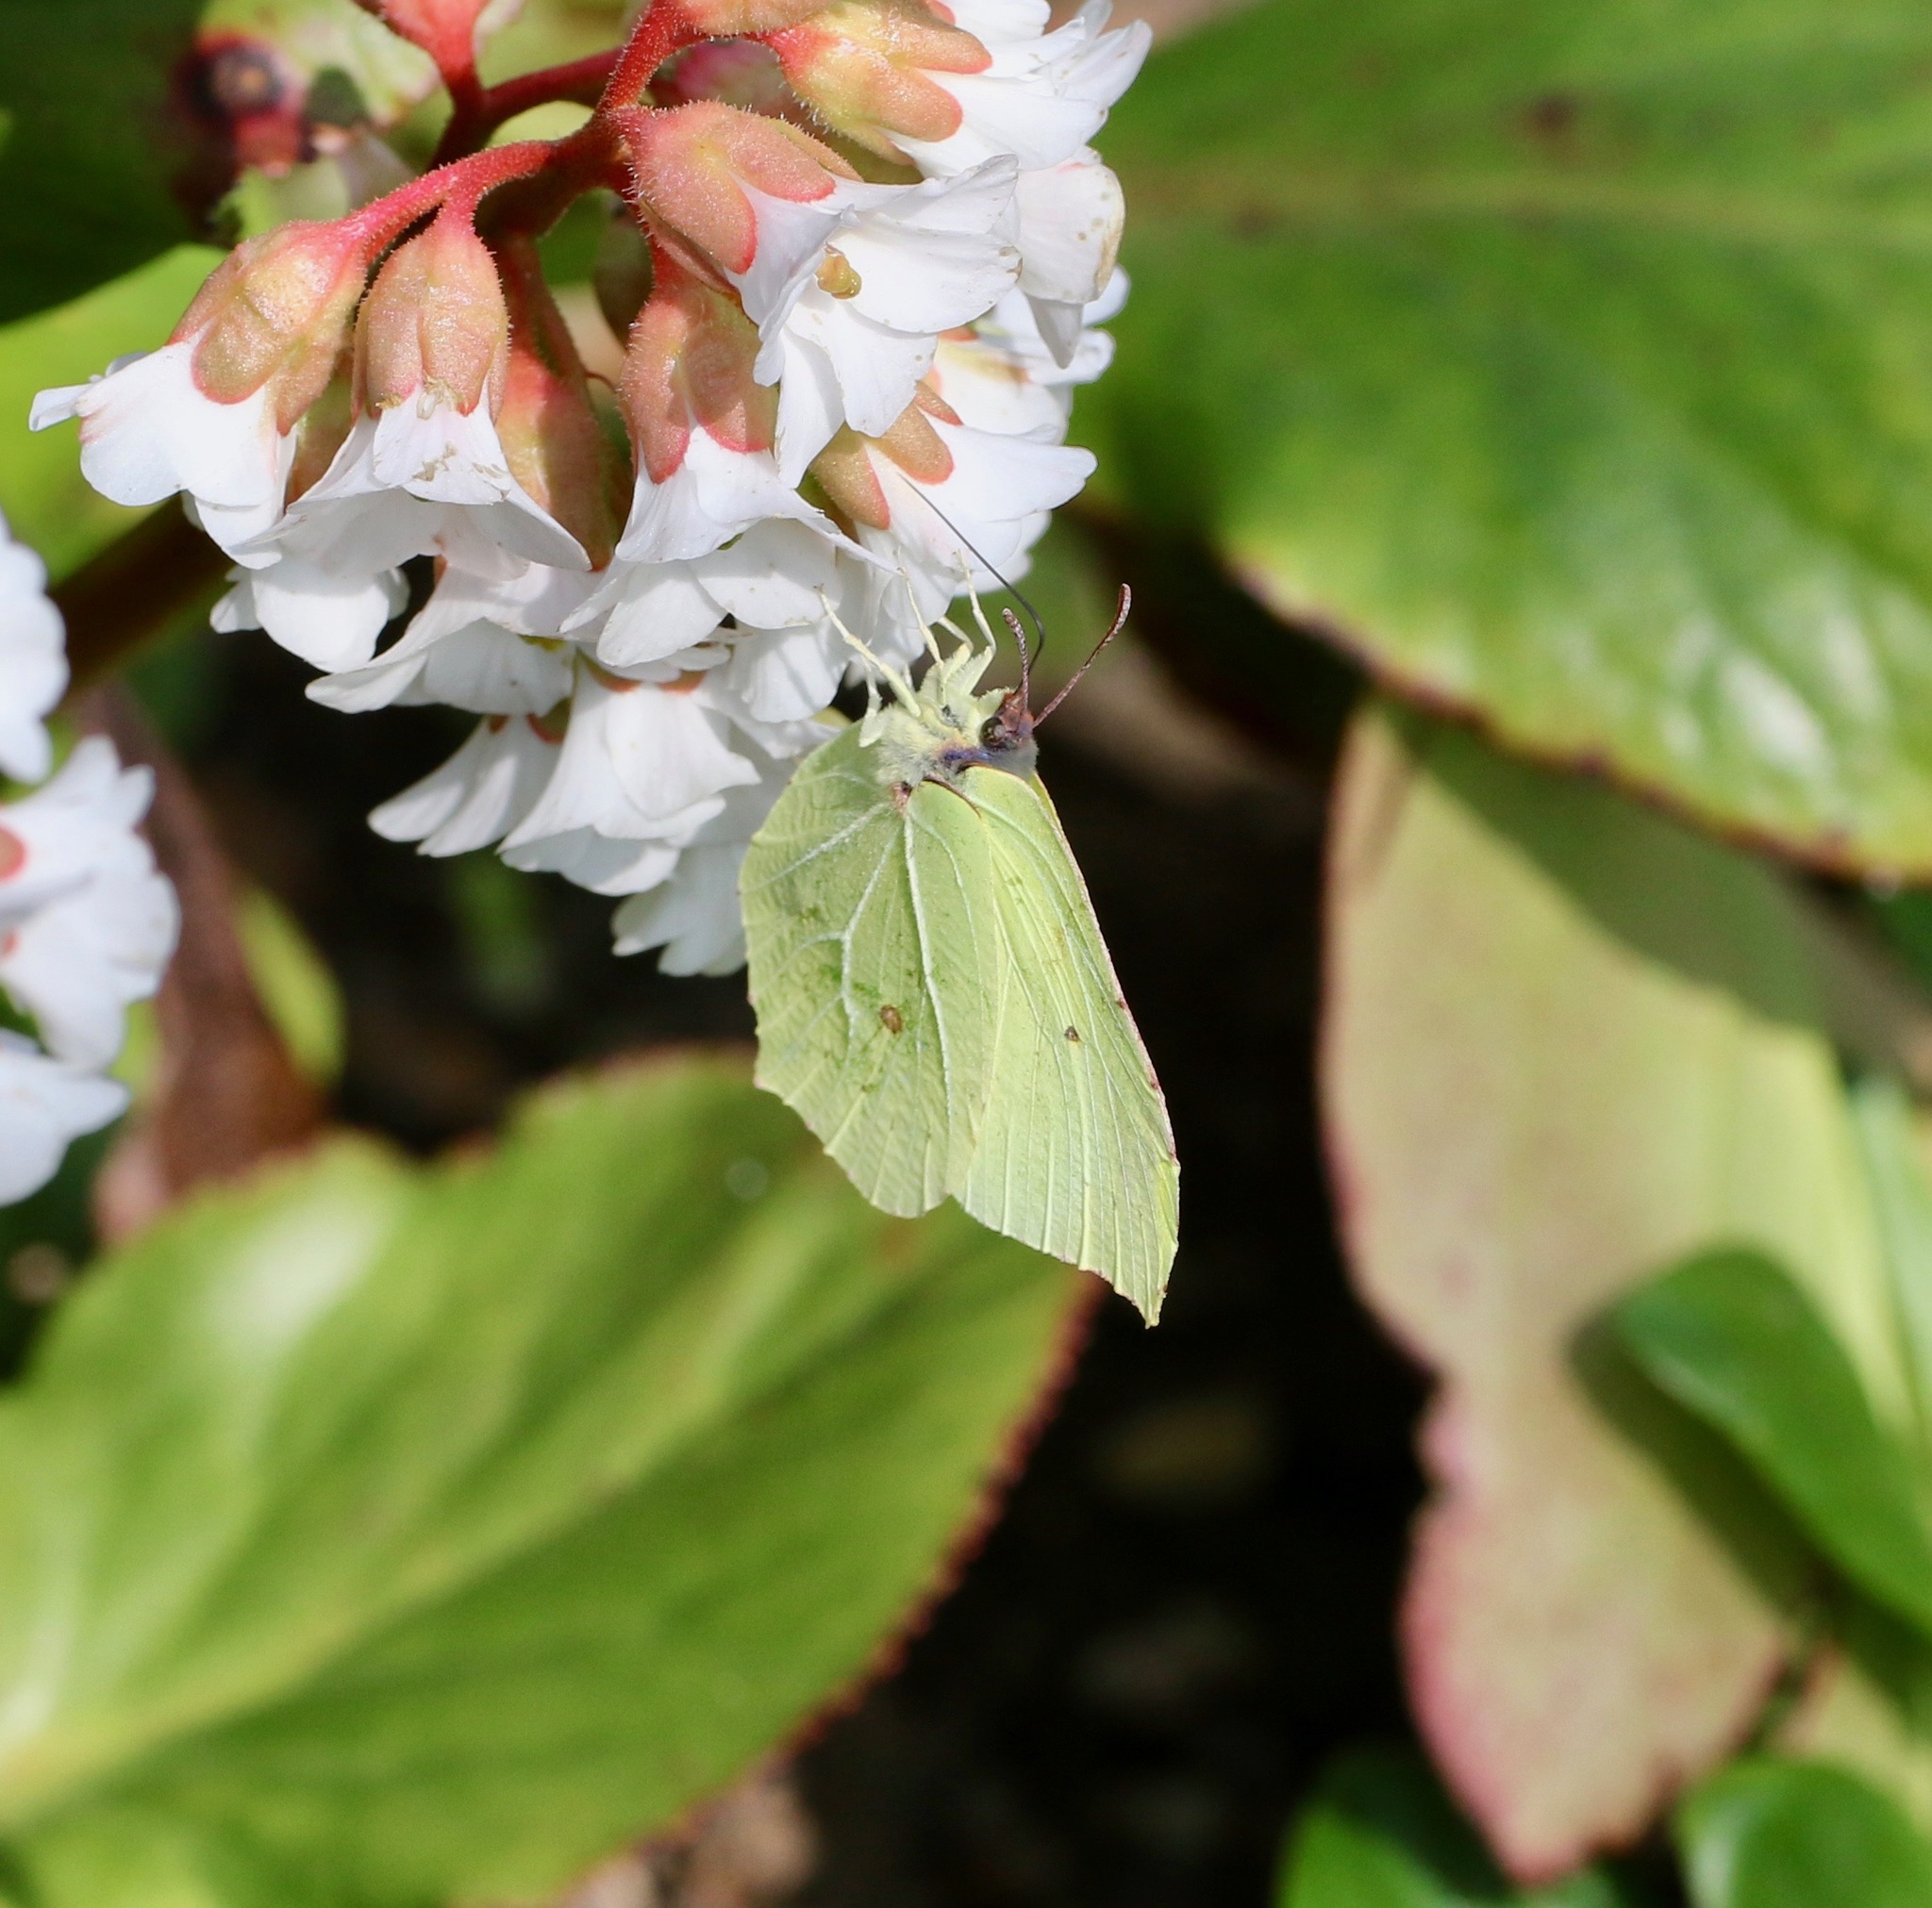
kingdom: Animalia
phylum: Arthropoda
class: Insecta
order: Lepidoptera
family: Pieridae
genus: Gonepteryx
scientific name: Gonepteryx rhamni
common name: Brimstone
